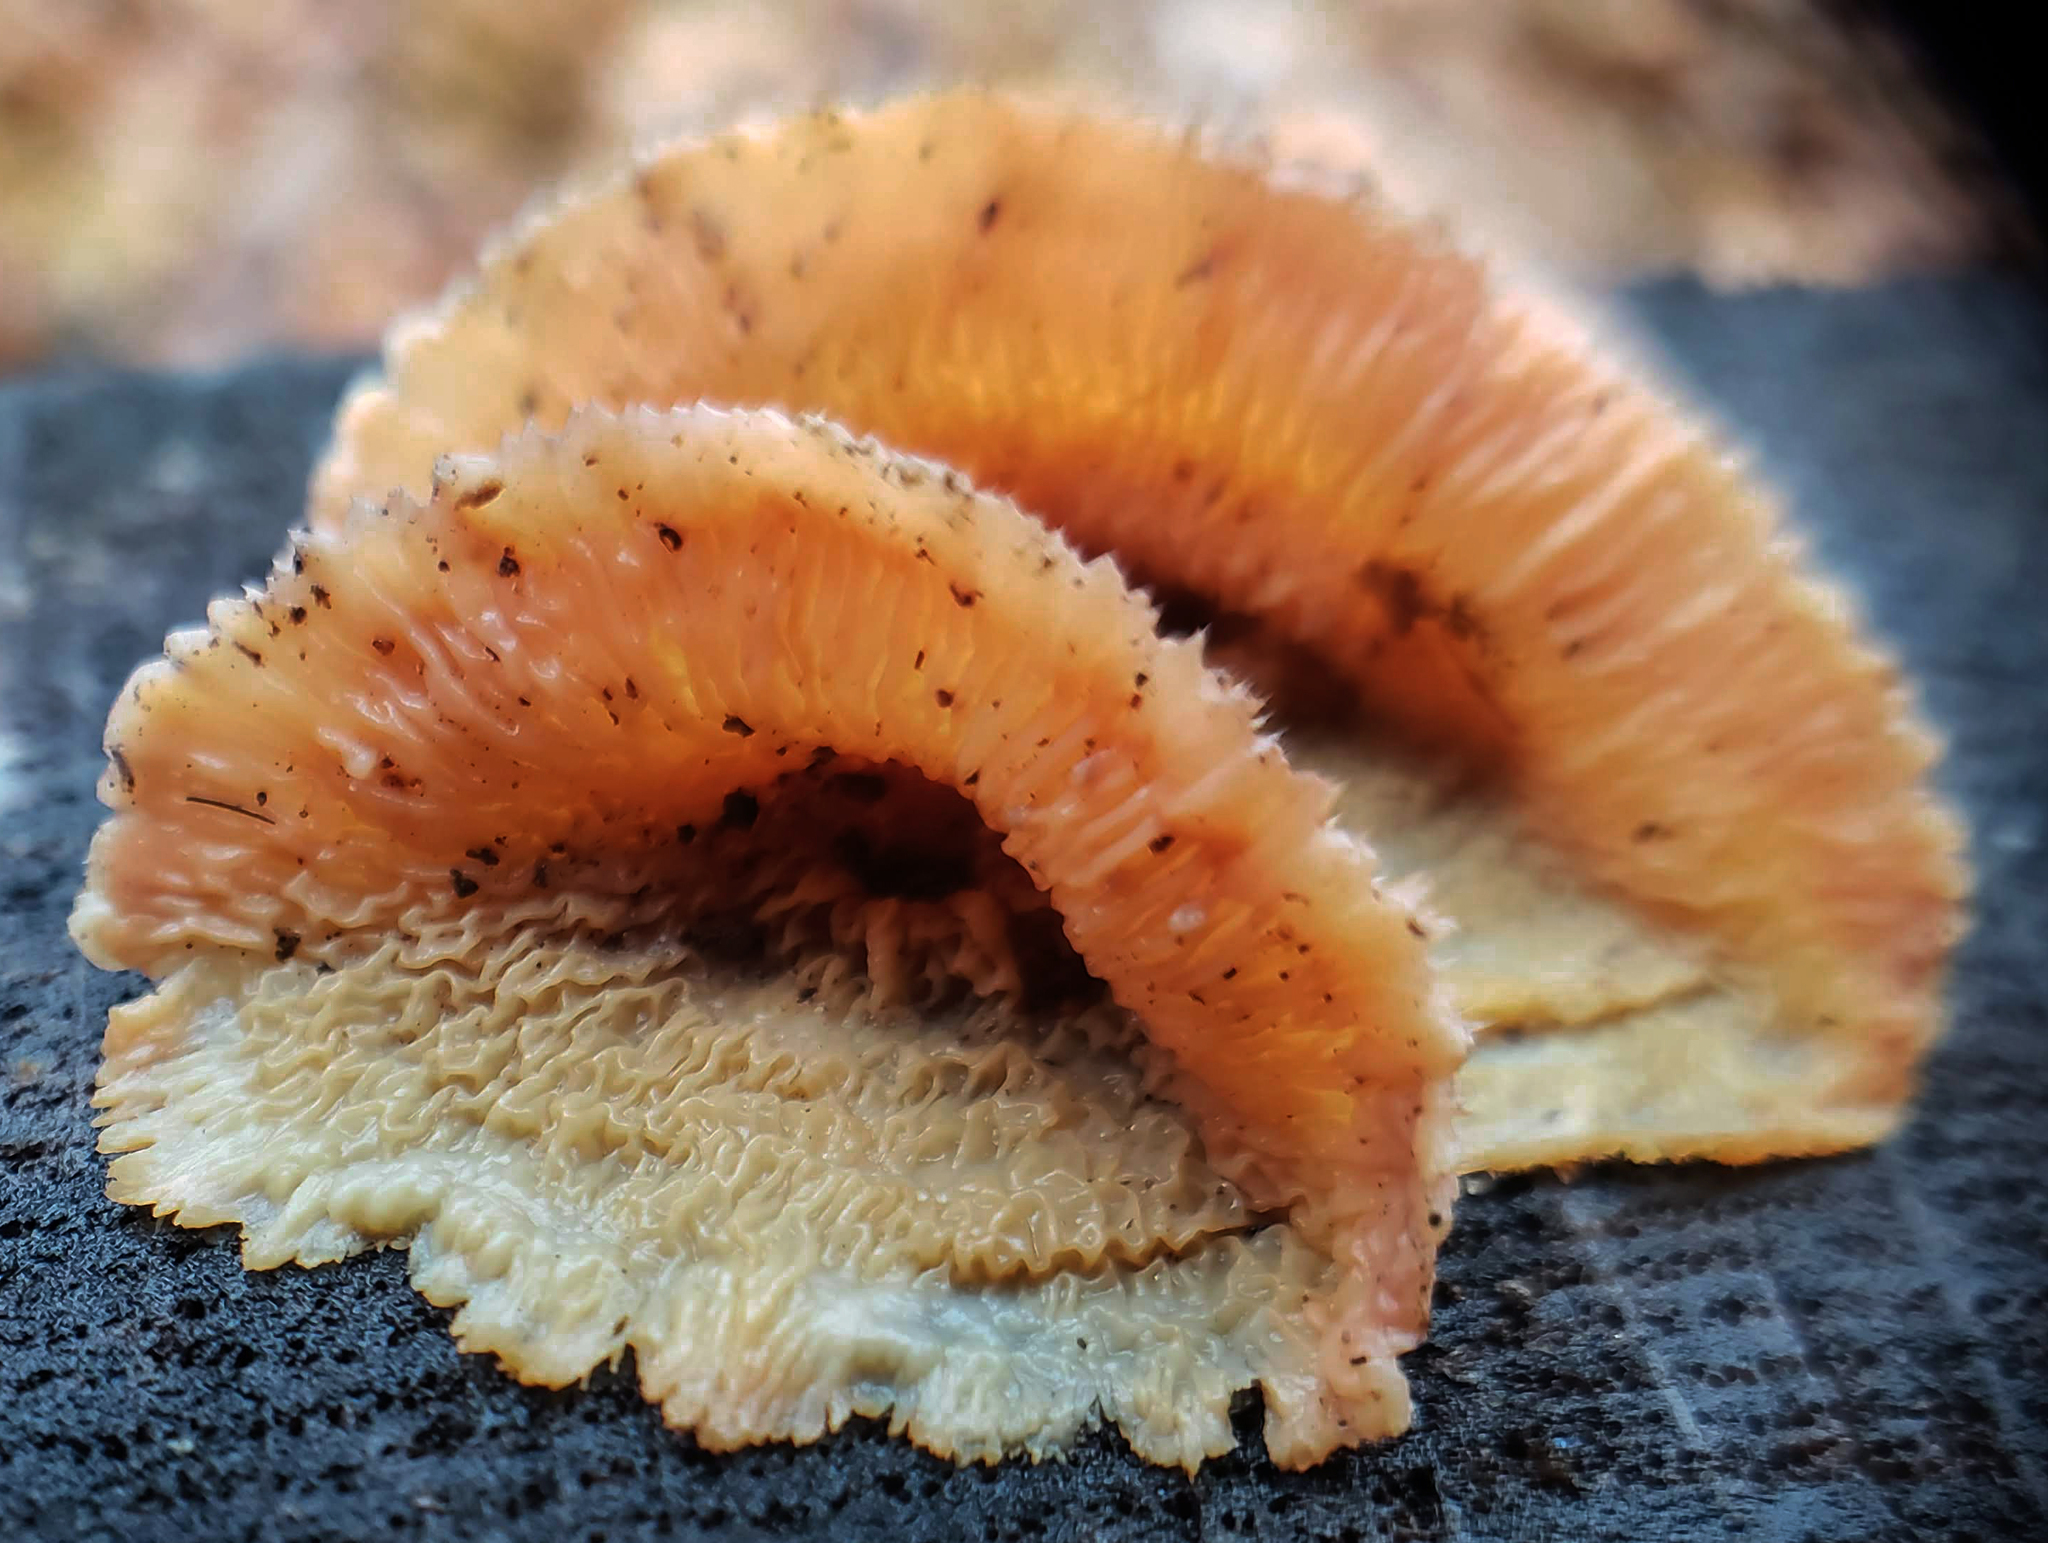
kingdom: Fungi
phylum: Basidiomycota
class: Agaricomycetes
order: Polyporales
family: Meruliaceae
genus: Phlebia
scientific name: Phlebia tremellosa
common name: Jelly rot
